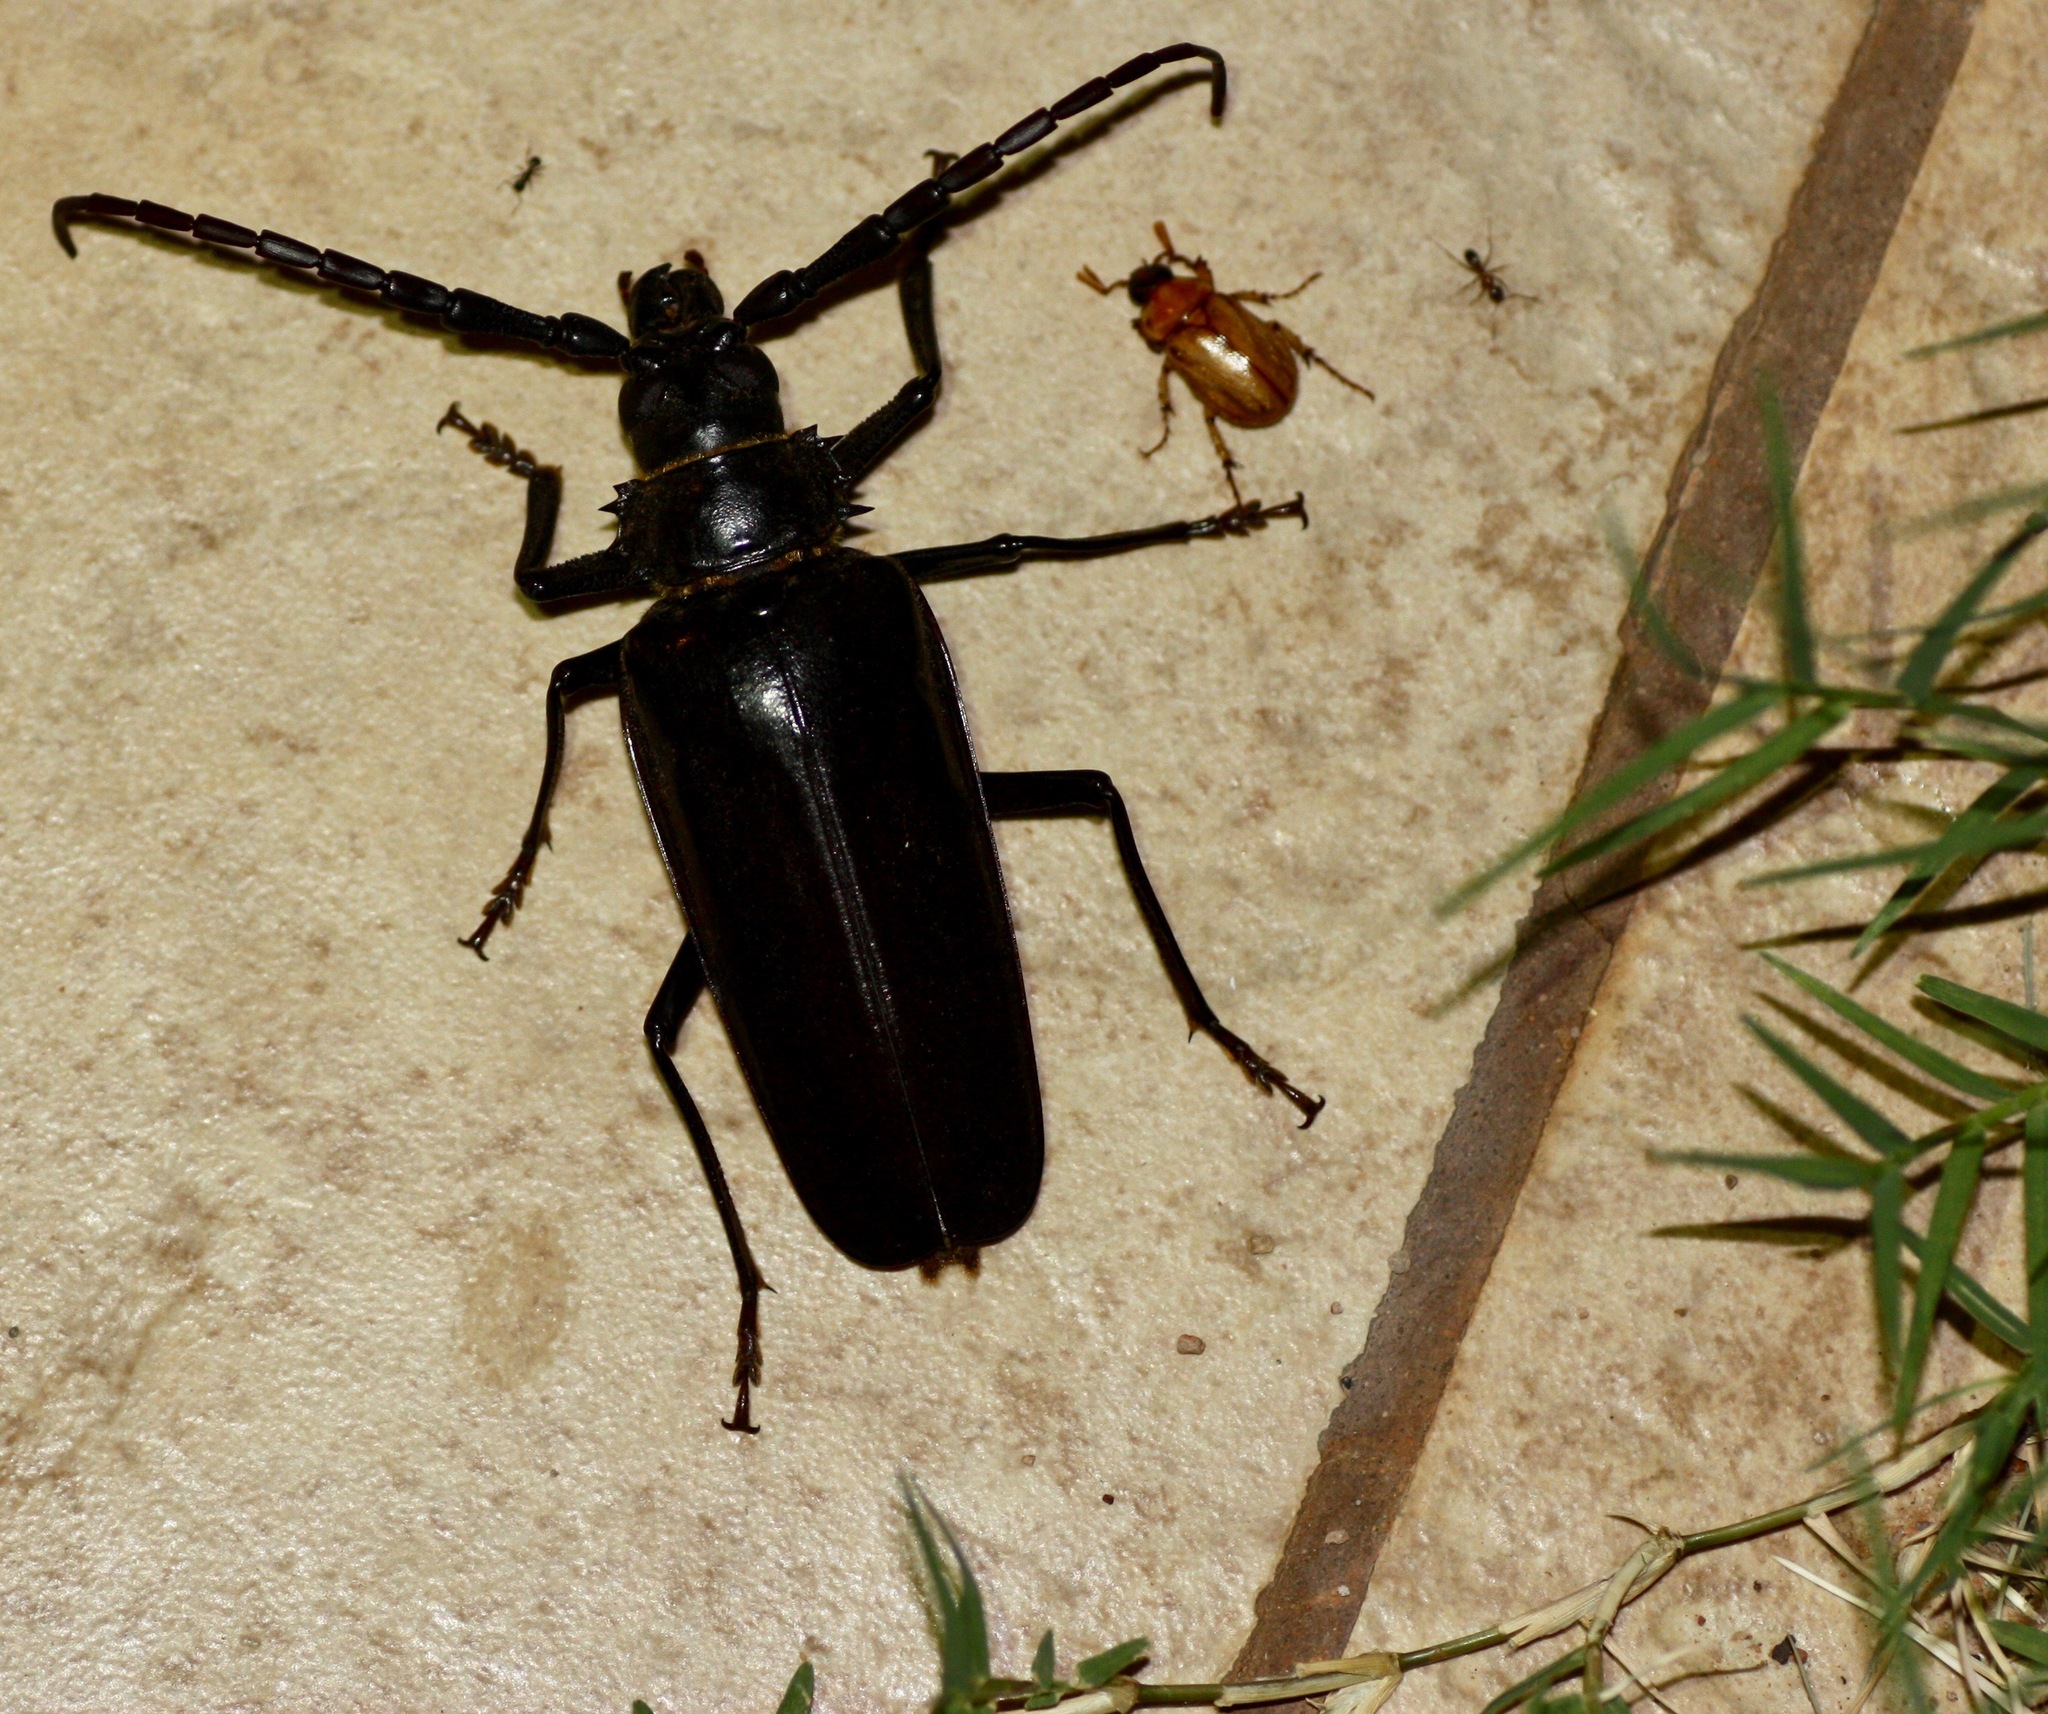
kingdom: Animalia
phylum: Arthropoda
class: Insecta
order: Coleoptera
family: Cerambycidae
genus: Derobrachus
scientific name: Derobrachus hovorei
